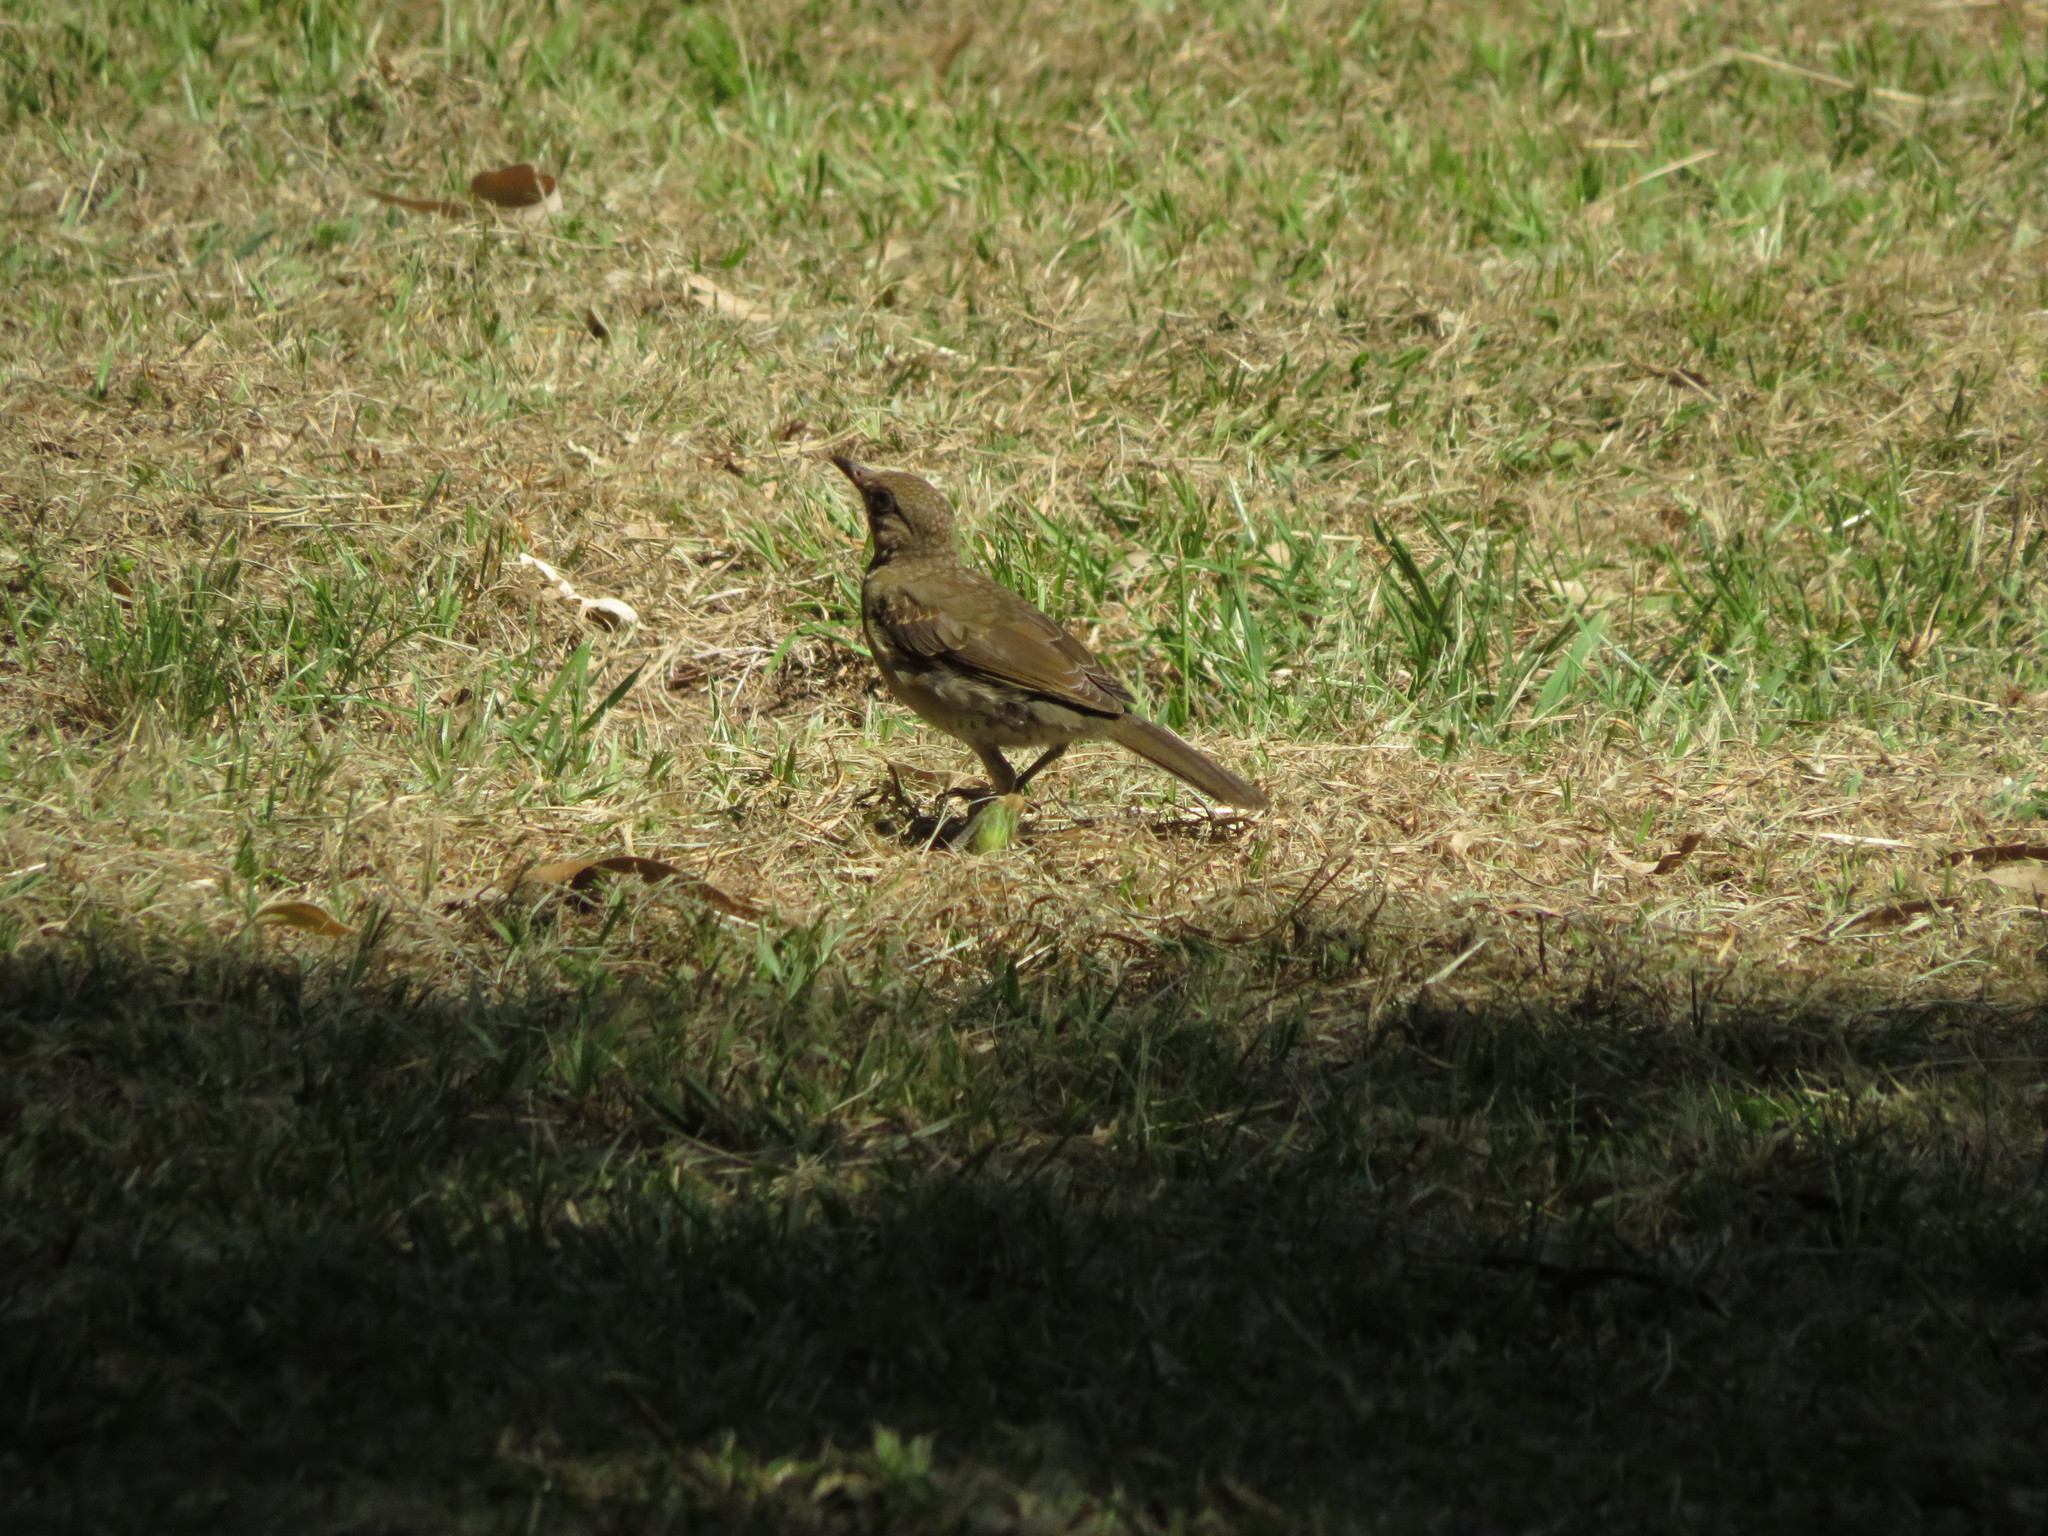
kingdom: Animalia
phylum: Chordata
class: Aves
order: Passeriformes
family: Turdidae
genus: Turdus
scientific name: Turdus amaurochalinus
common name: Creamy-bellied thrush
